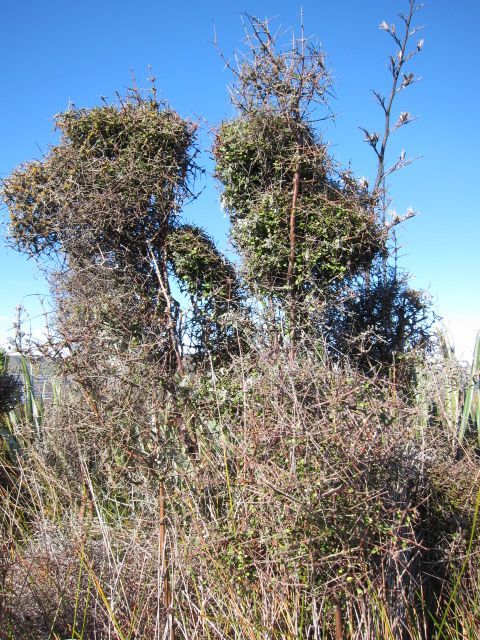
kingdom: Plantae
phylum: Tracheophyta
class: Magnoliopsida
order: Gentianales
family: Rubiaceae
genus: Coprosma
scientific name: Coprosma crassifolia
